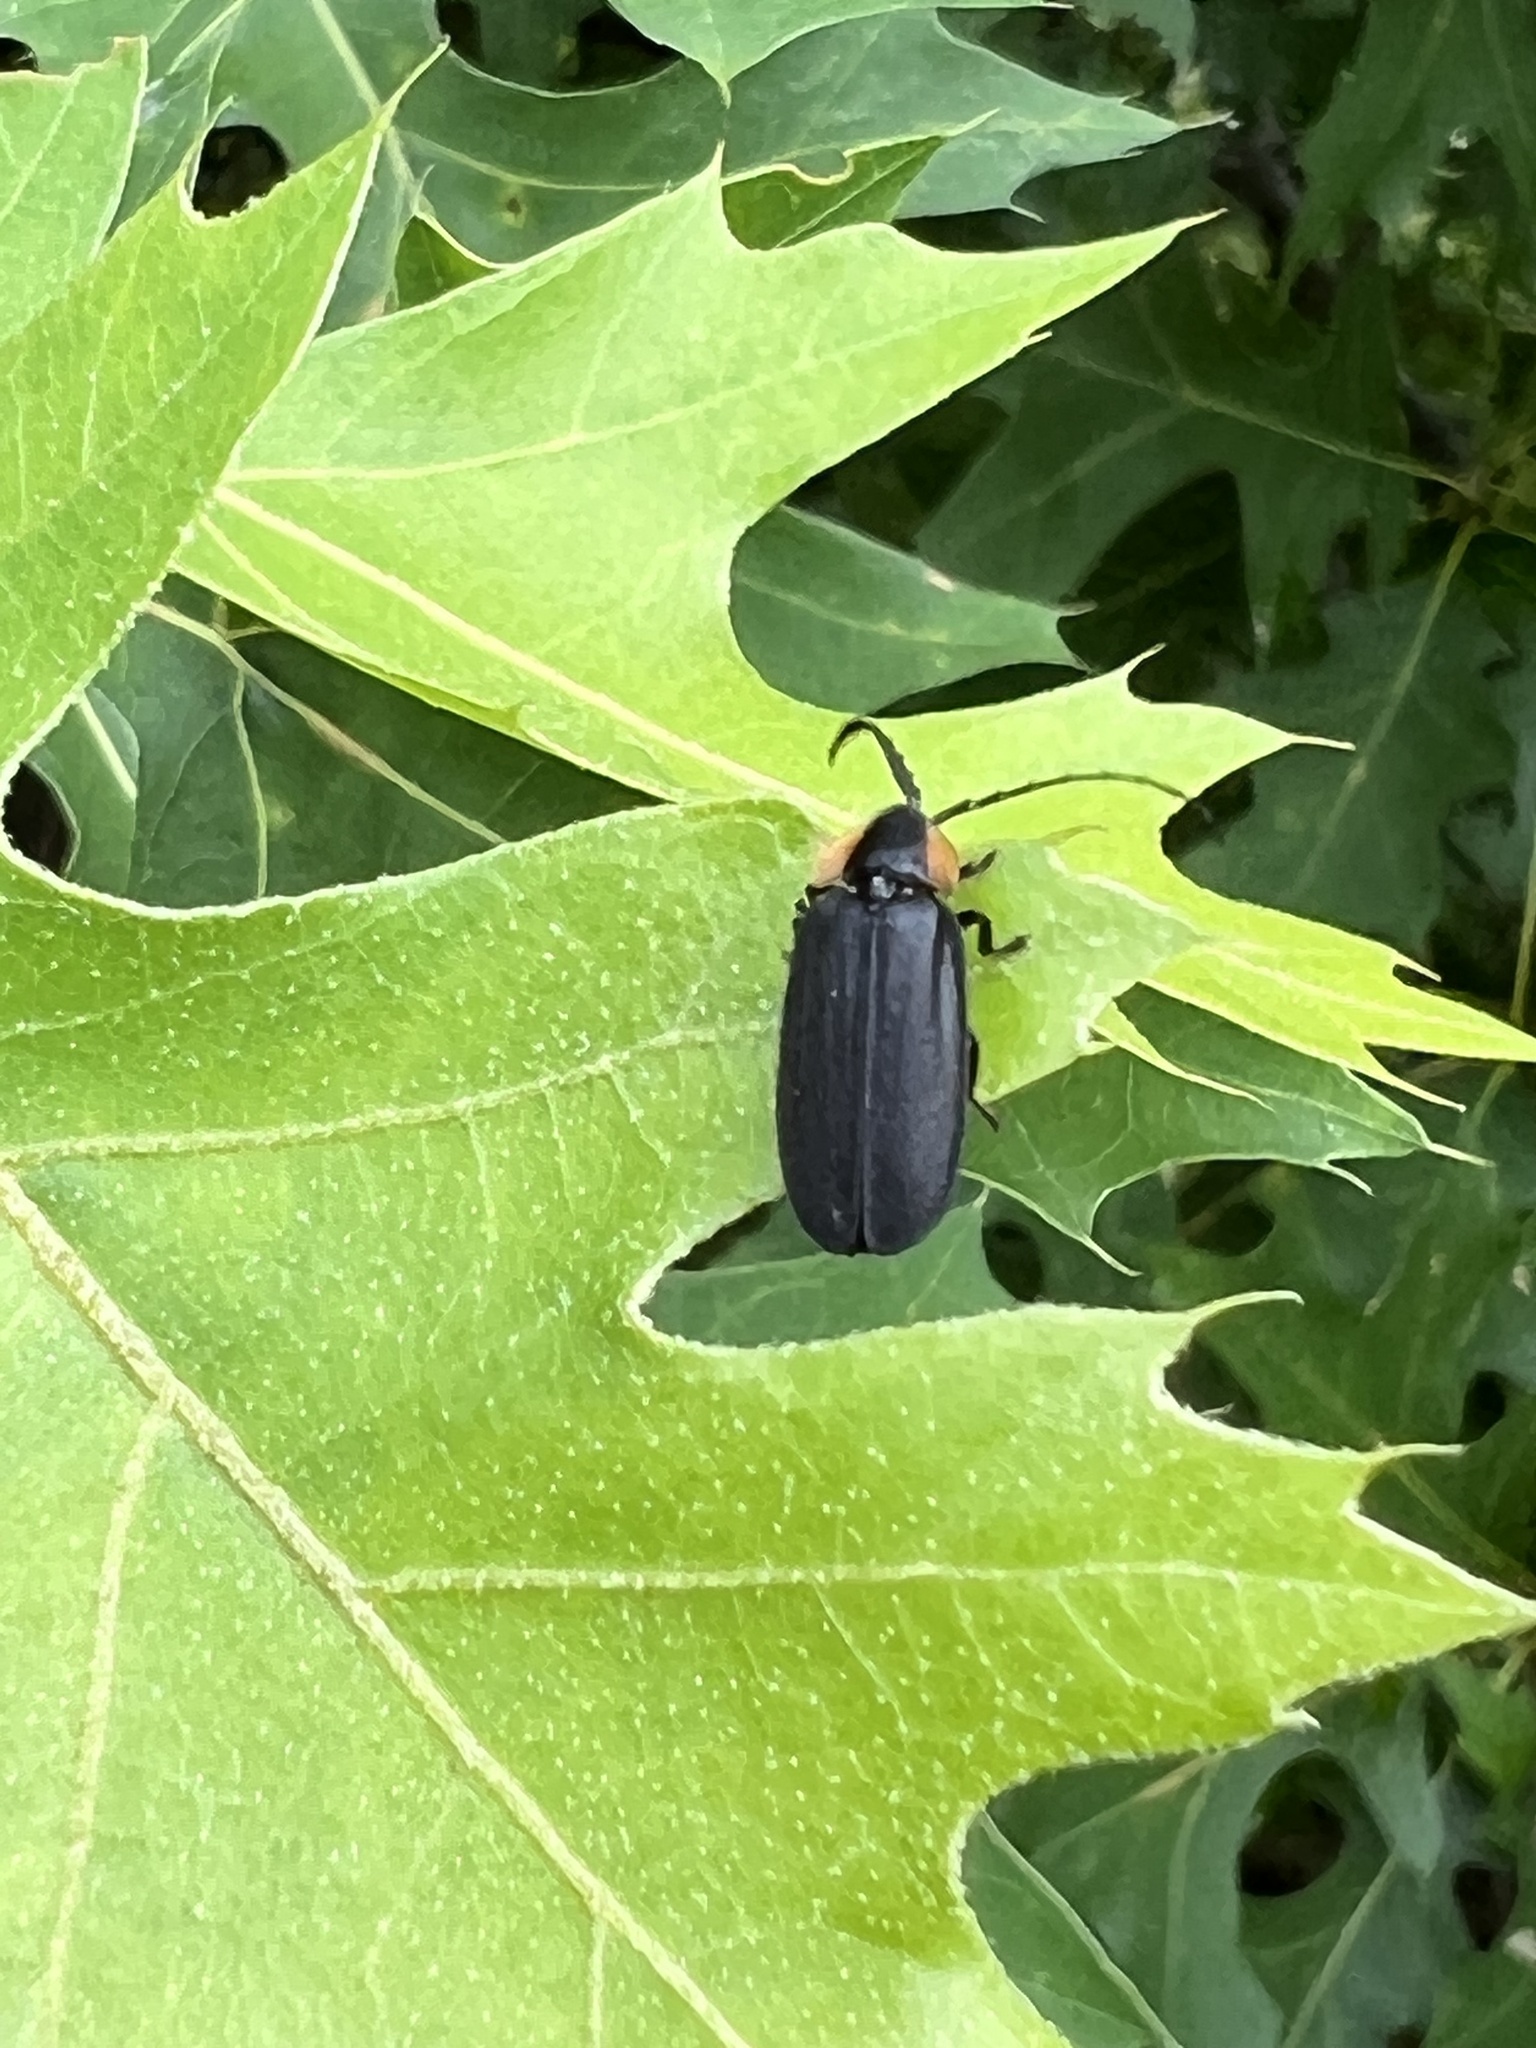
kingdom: Animalia
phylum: Arthropoda
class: Insecta
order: Coleoptera
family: Lampyridae
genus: Lucidota
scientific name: Lucidota atra
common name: Black firefly
